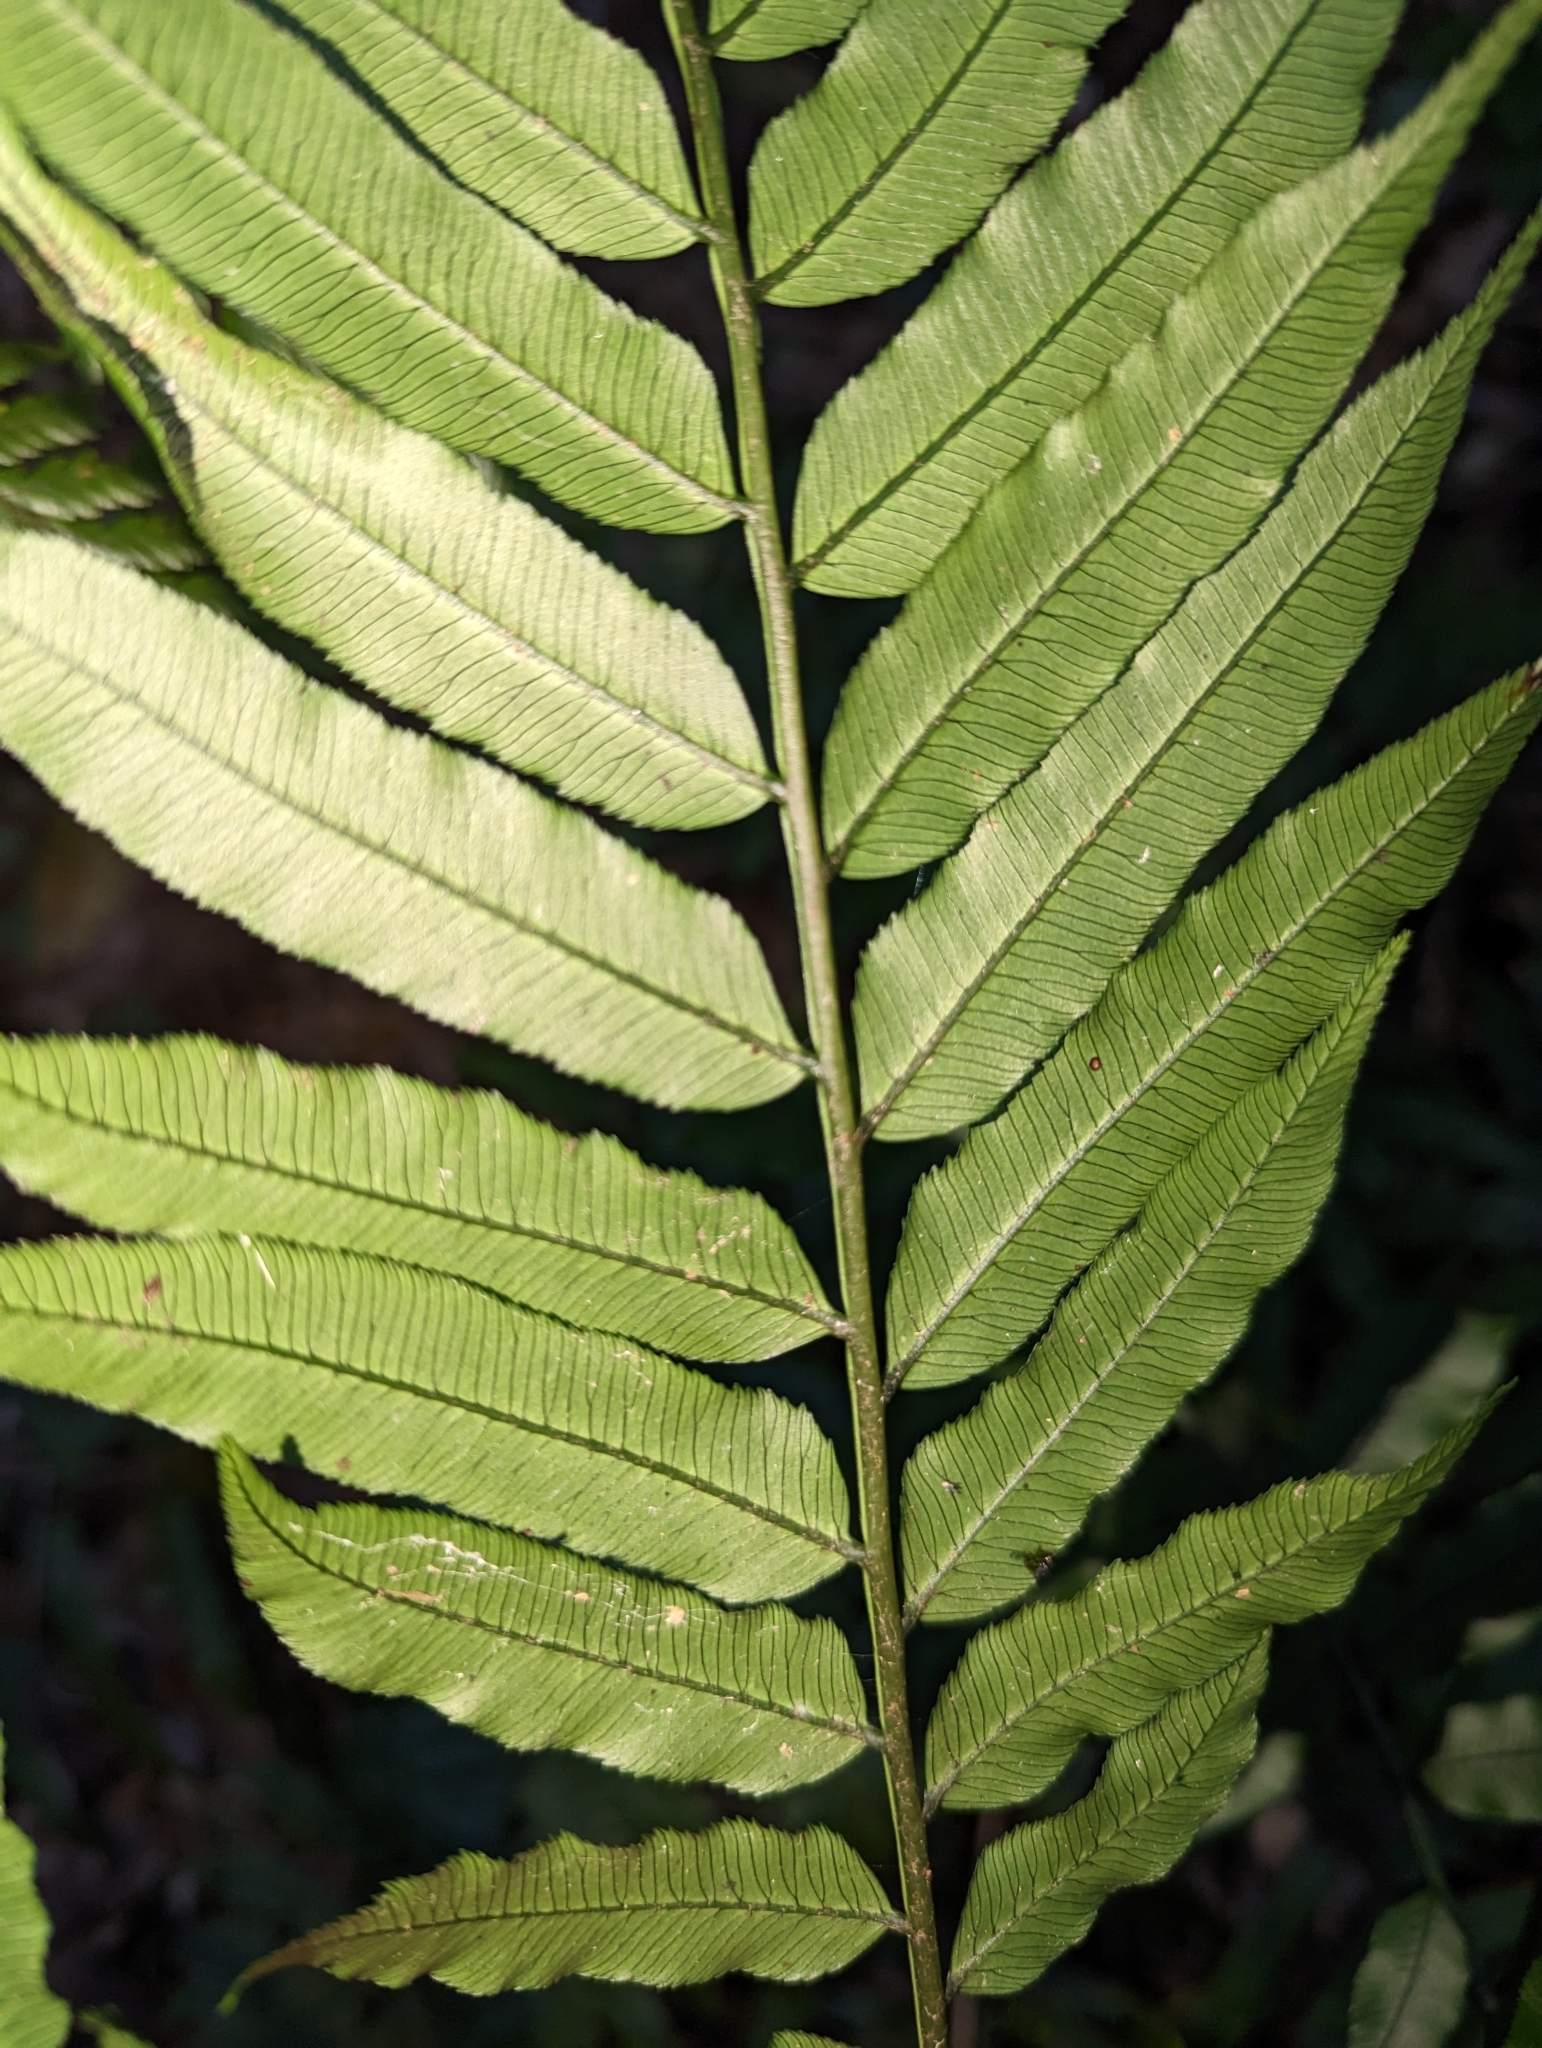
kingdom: Plantae
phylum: Tracheophyta
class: Polypodiopsida
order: Marattiales
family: Marattiaceae
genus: Angiopteris
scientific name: Angiopteris lygodiifolia
